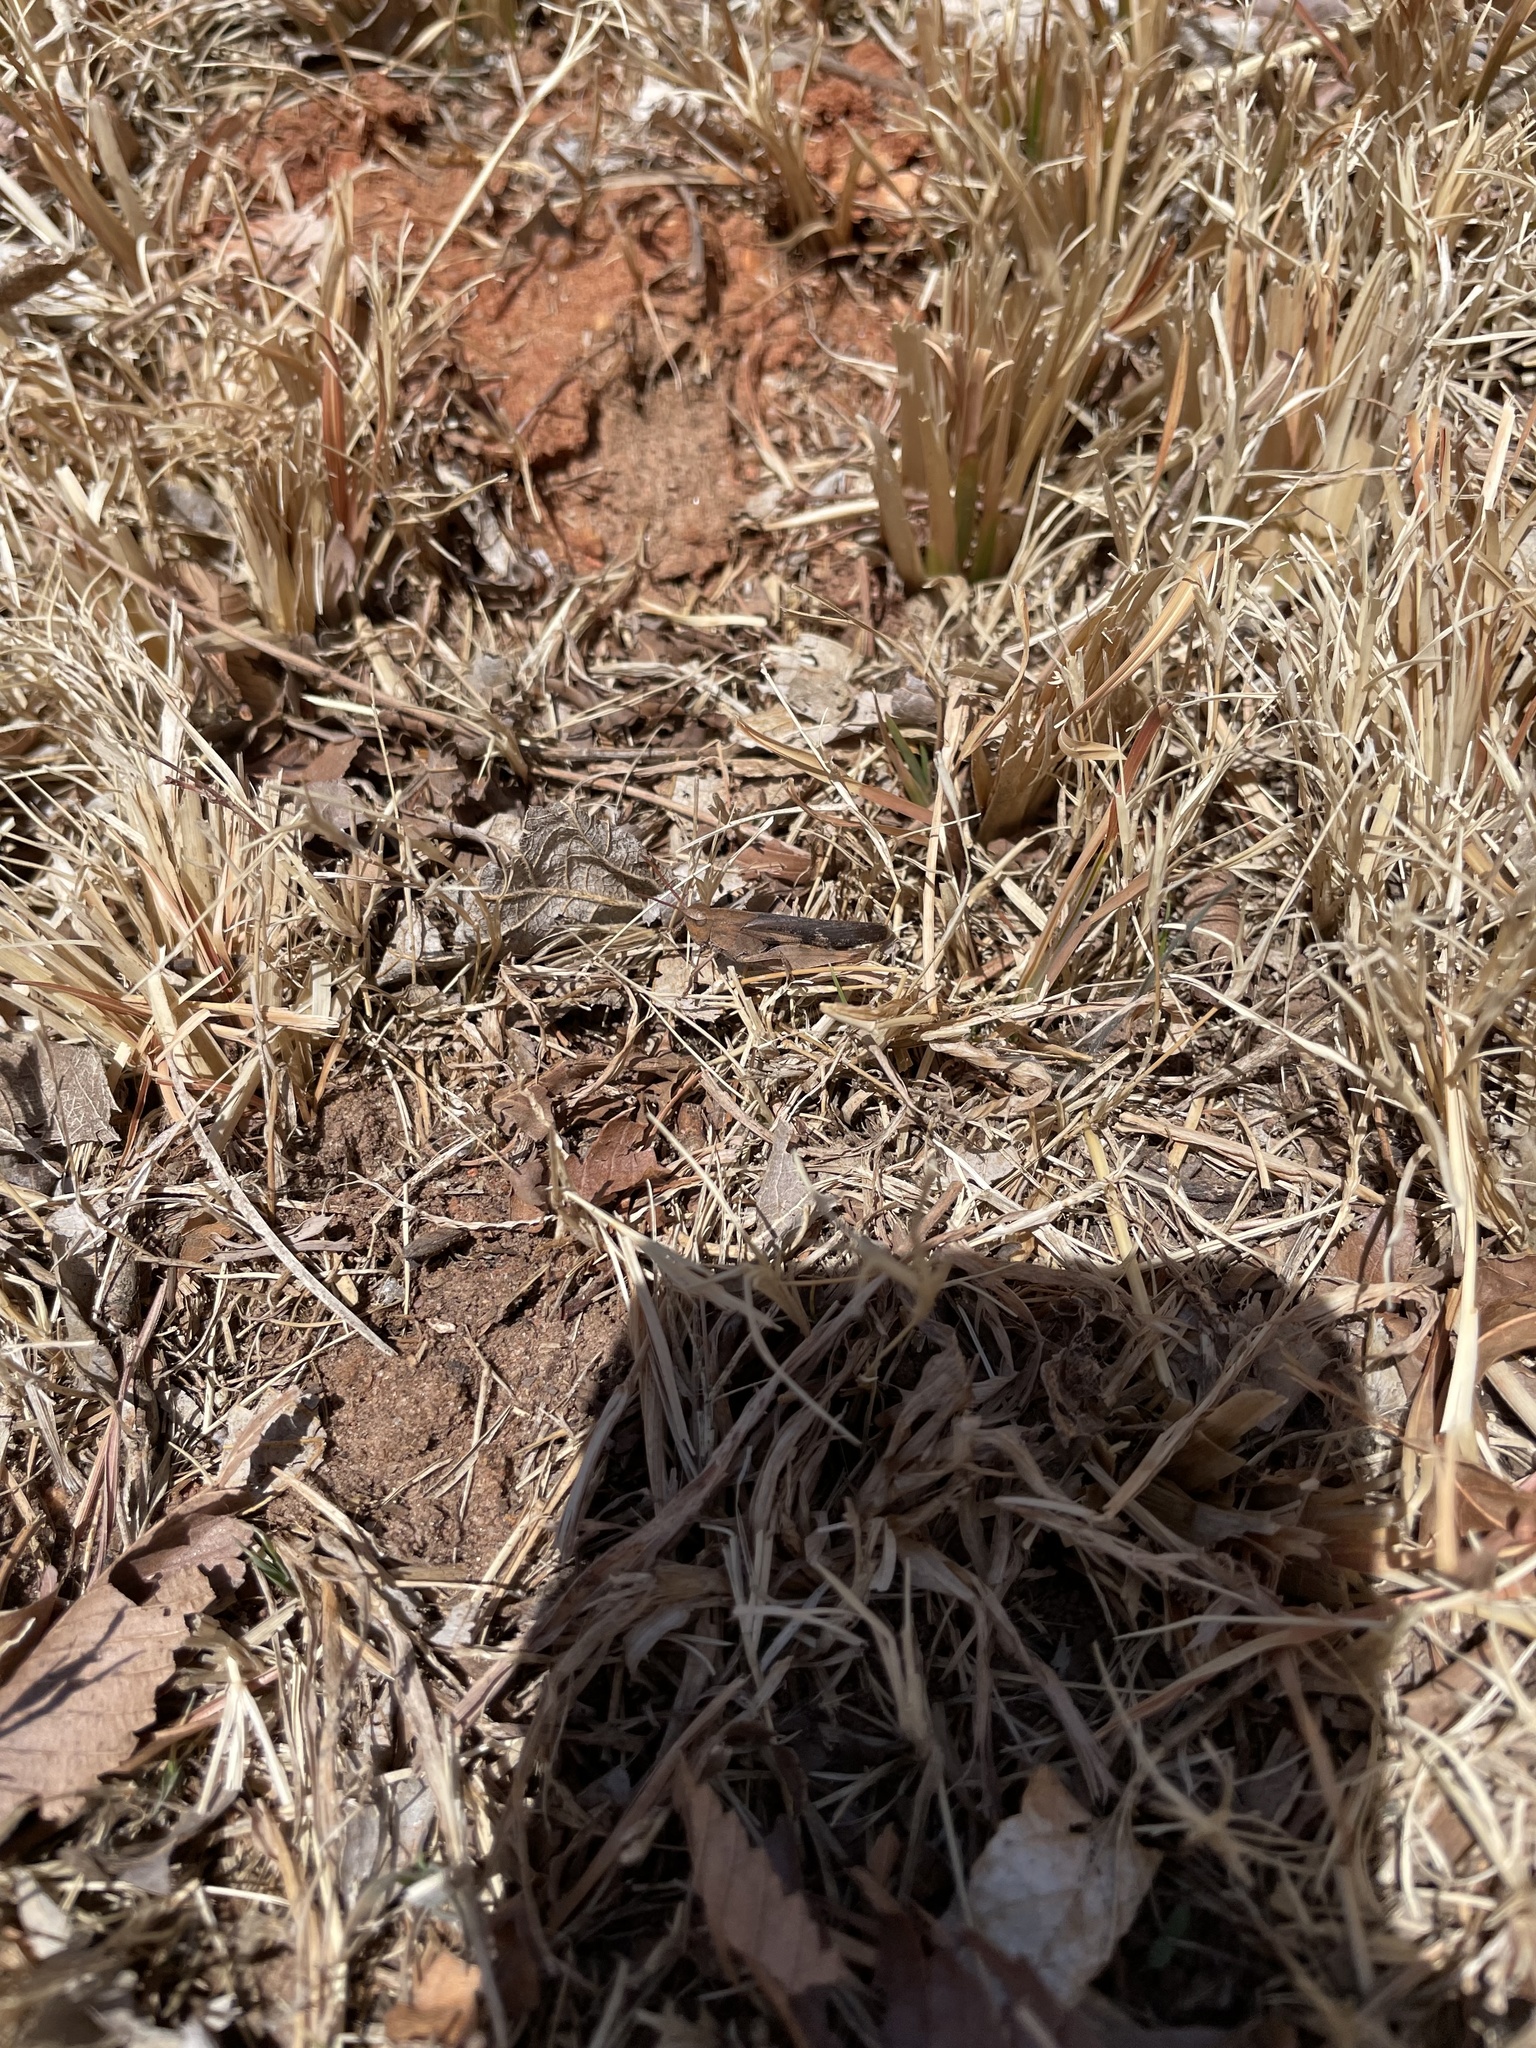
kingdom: Animalia
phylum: Arthropoda
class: Insecta
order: Orthoptera
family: Acrididae
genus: Chortophaga
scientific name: Chortophaga viridifasciata
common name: Green-striped grasshopper
